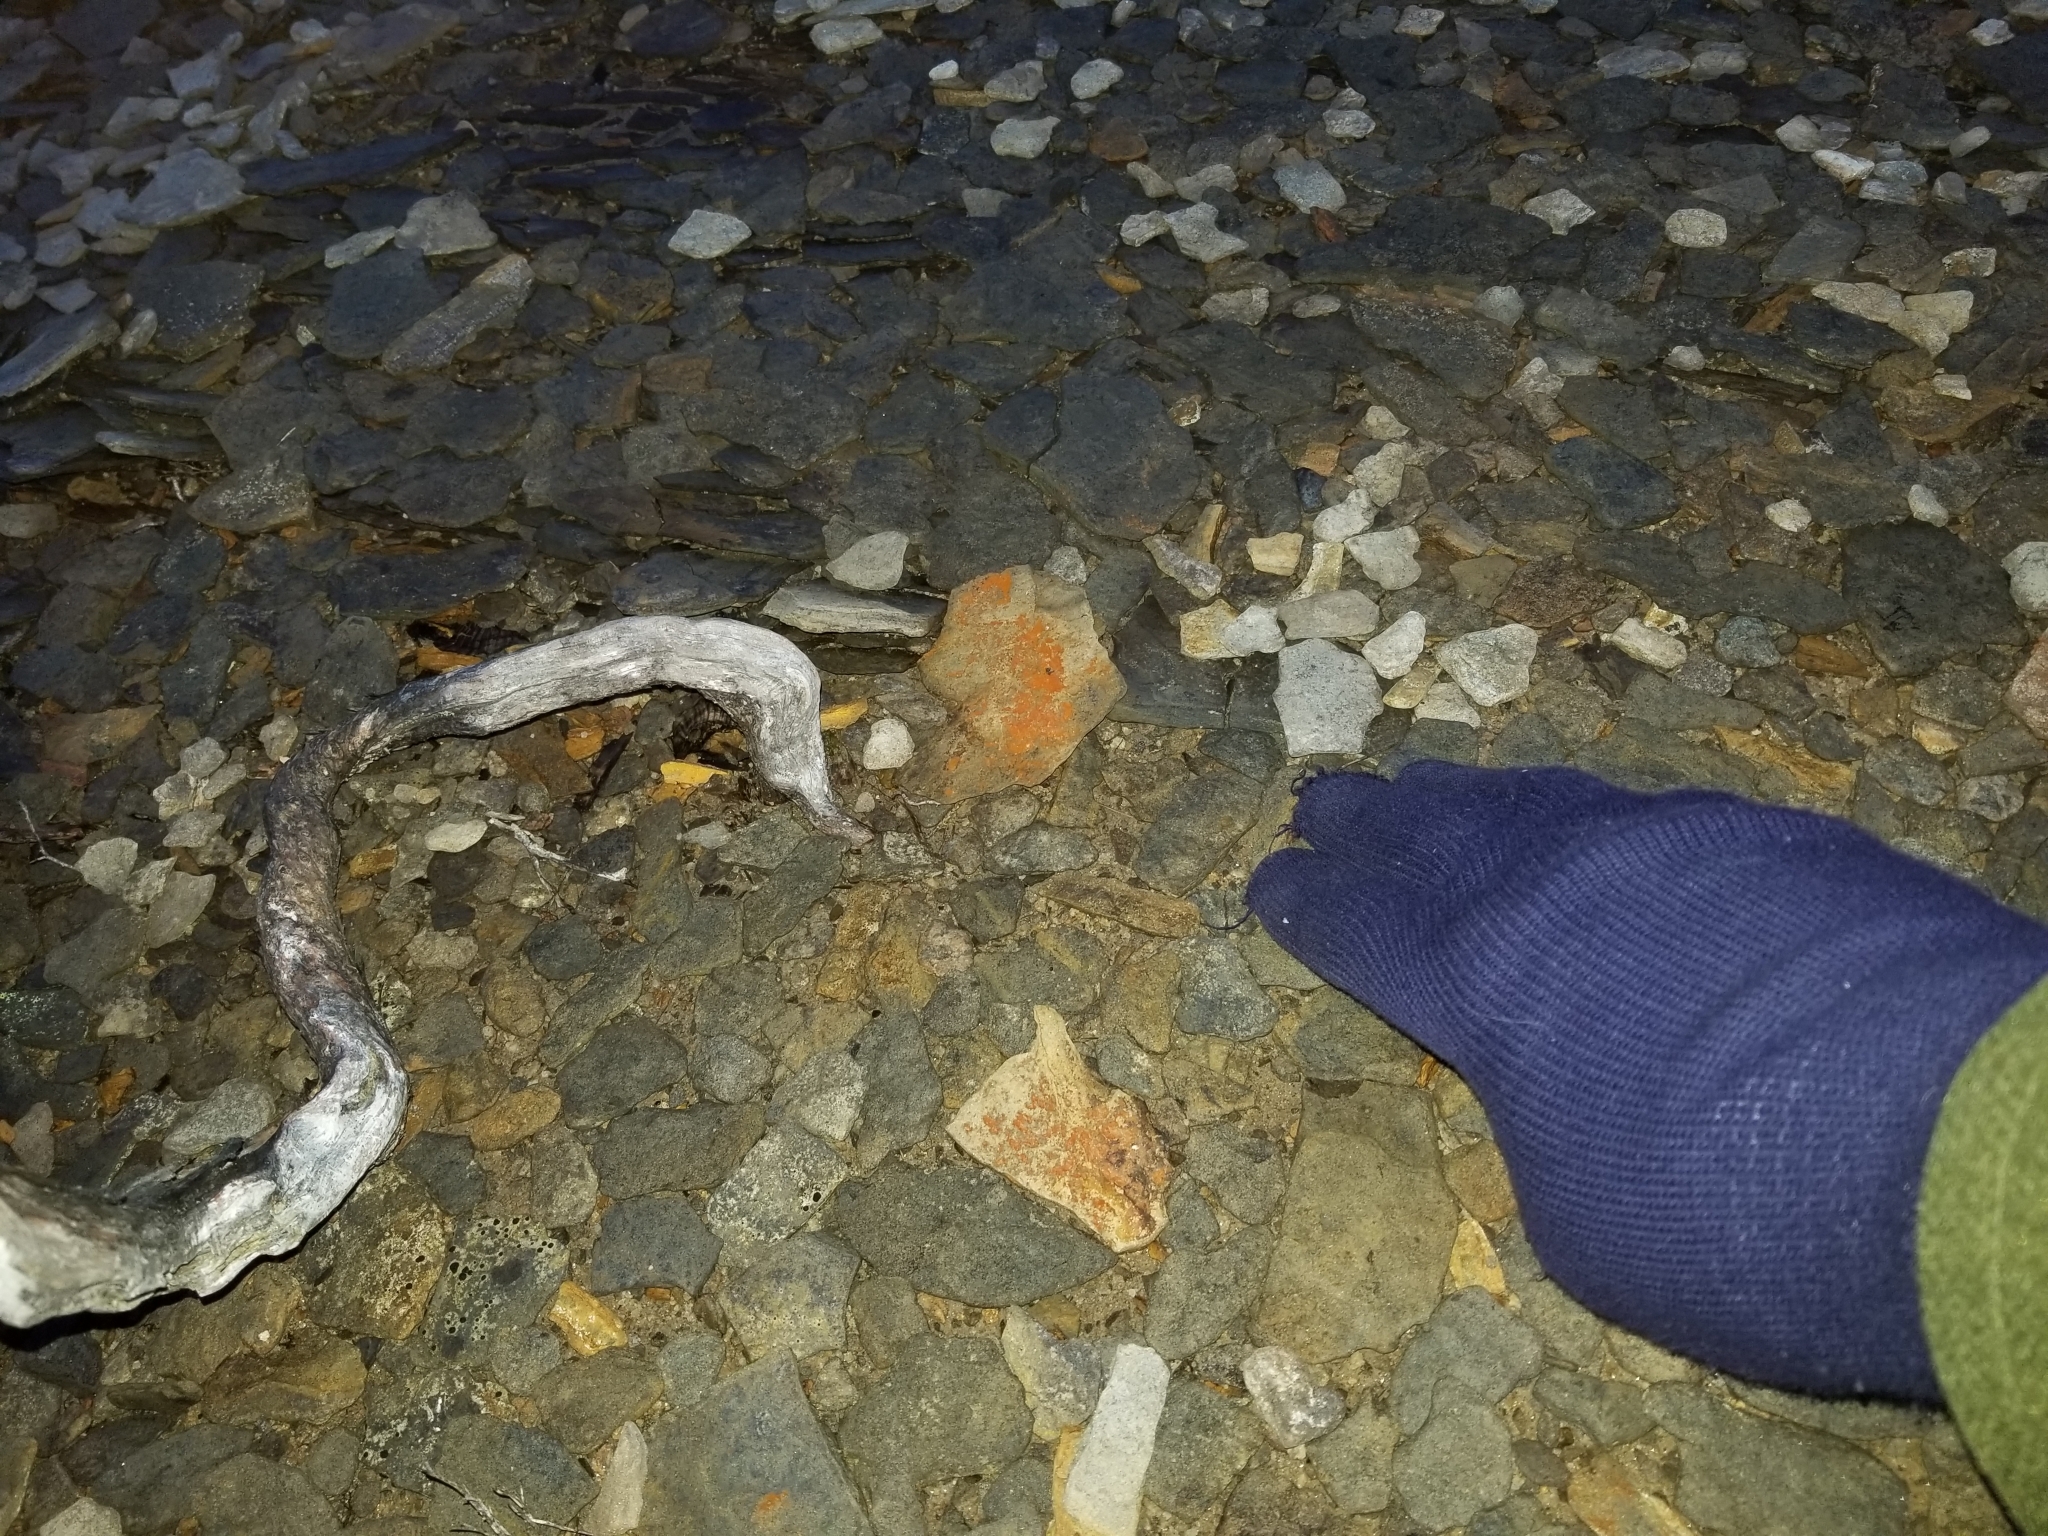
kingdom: Plantae
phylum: Chlorophyta
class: Ulvophyceae
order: Trentepohliales
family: Trentepohliaceae
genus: Trentepohlia
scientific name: Trentepohlia
